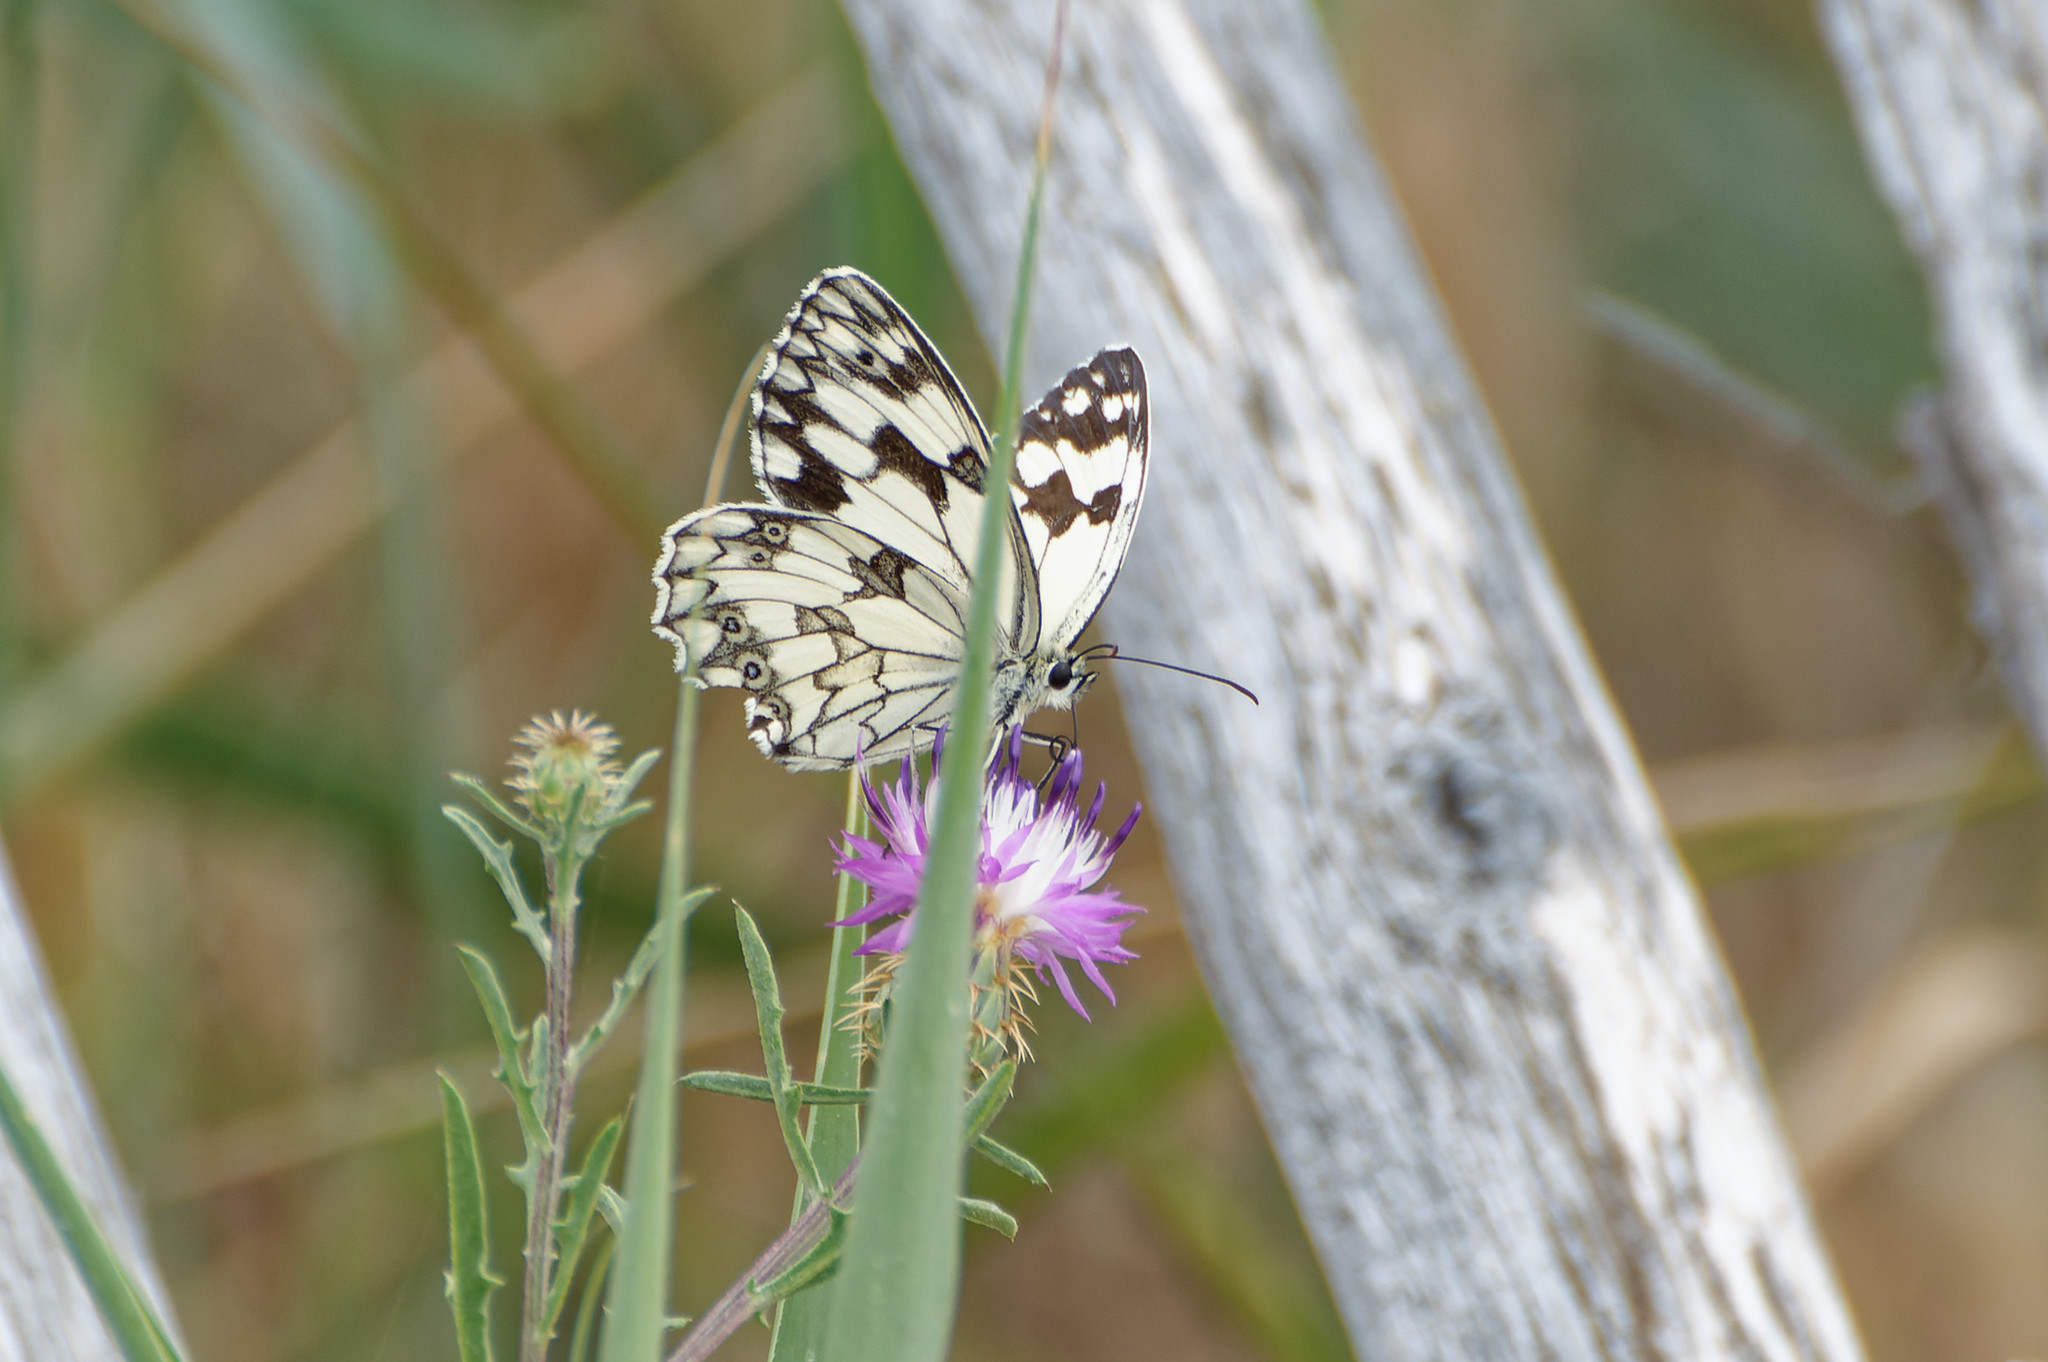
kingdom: Animalia
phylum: Arthropoda
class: Insecta
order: Lepidoptera
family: Nymphalidae
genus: Melanargia
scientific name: Melanargia lachesis
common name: Iberian marbled white
